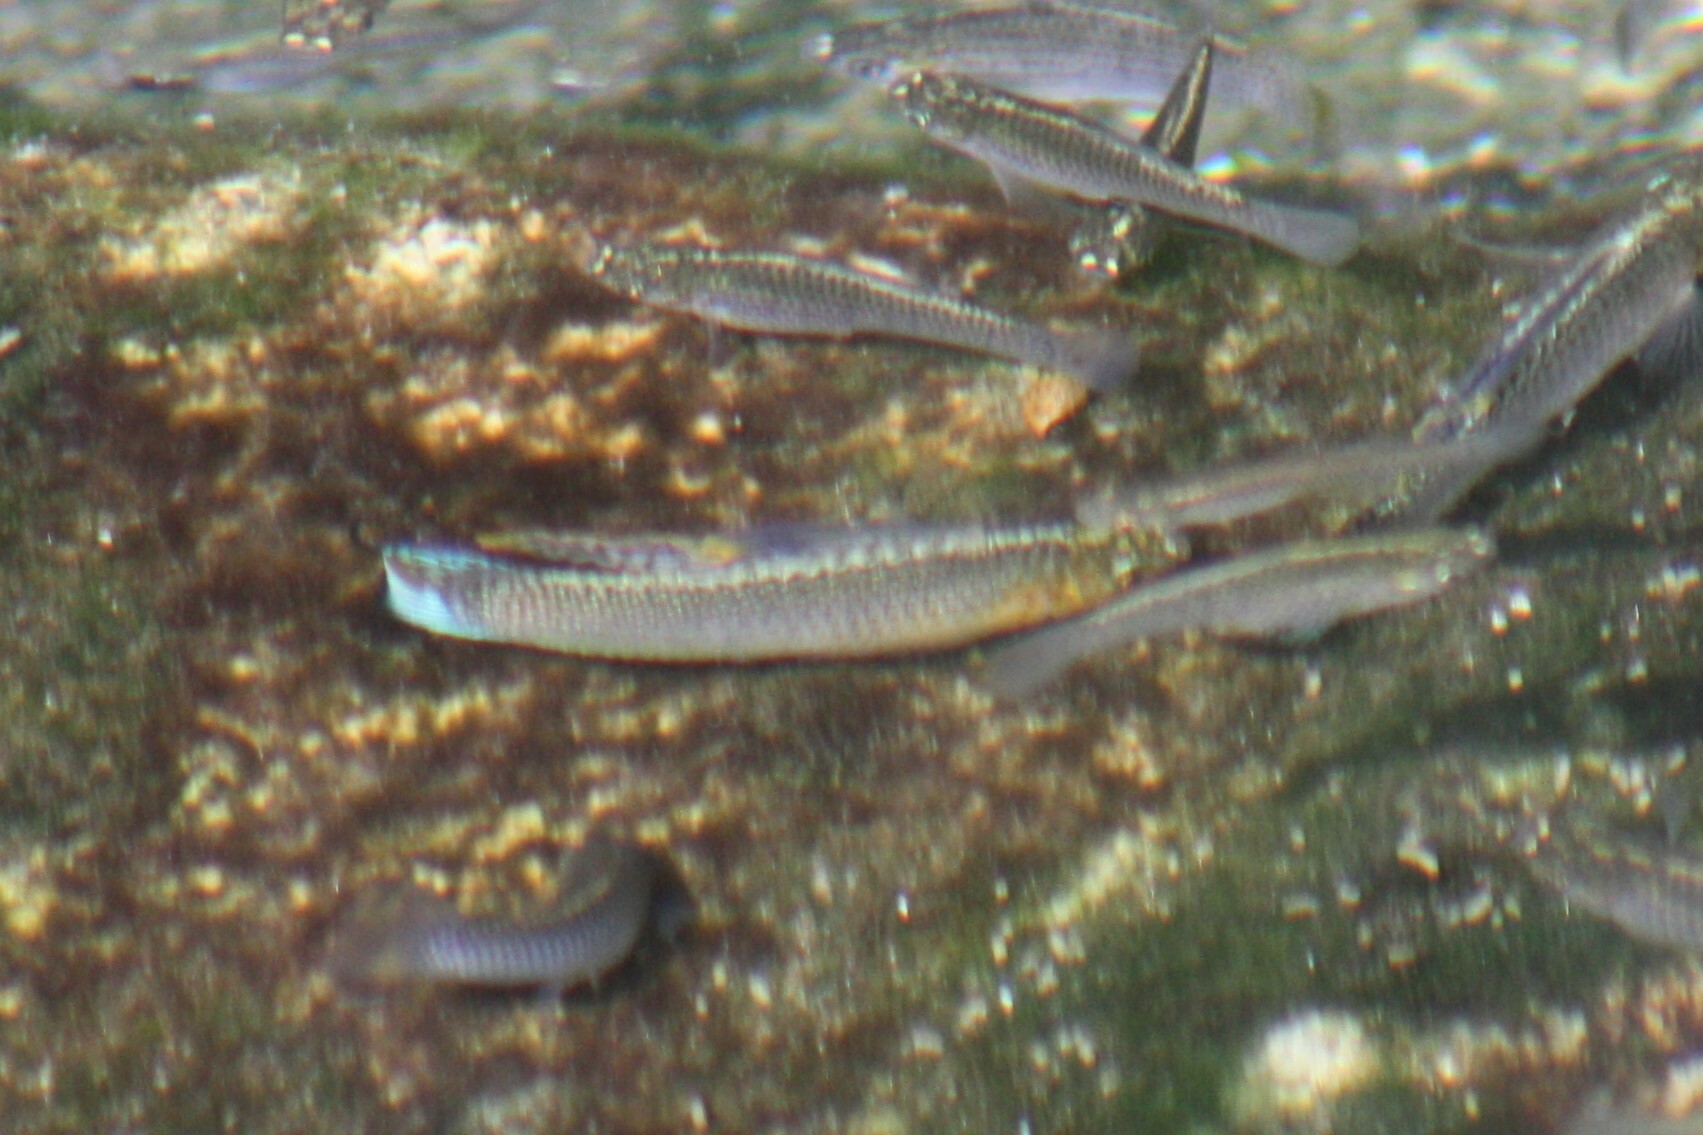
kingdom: Animalia
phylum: Chordata
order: Cyprinodontiformes
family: Poeciliidae
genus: Poecilia
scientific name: Poecilia latipinna
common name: Sailfin molly
